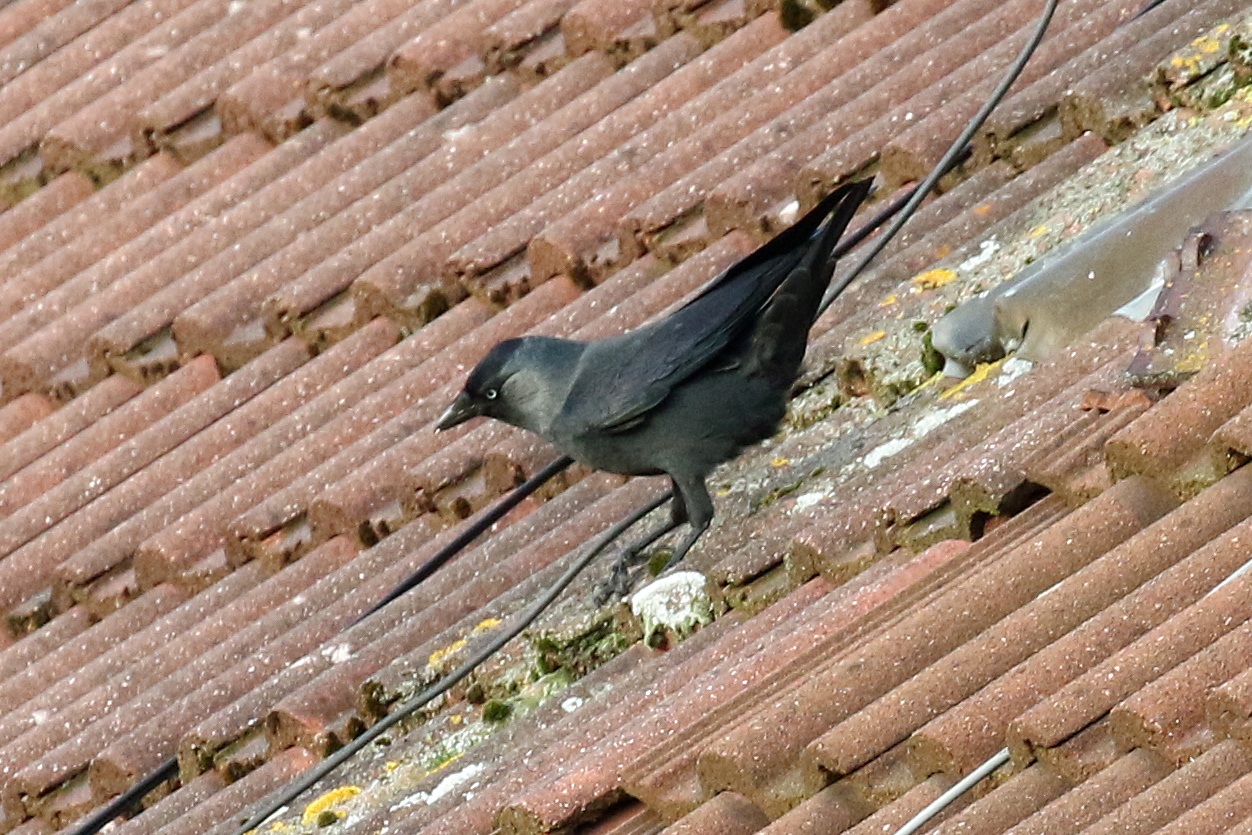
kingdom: Animalia
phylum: Chordata
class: Aves
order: Passeriformes
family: Corvidae
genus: Coloeus
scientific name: Coloeus monedula
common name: Western jackdaw
